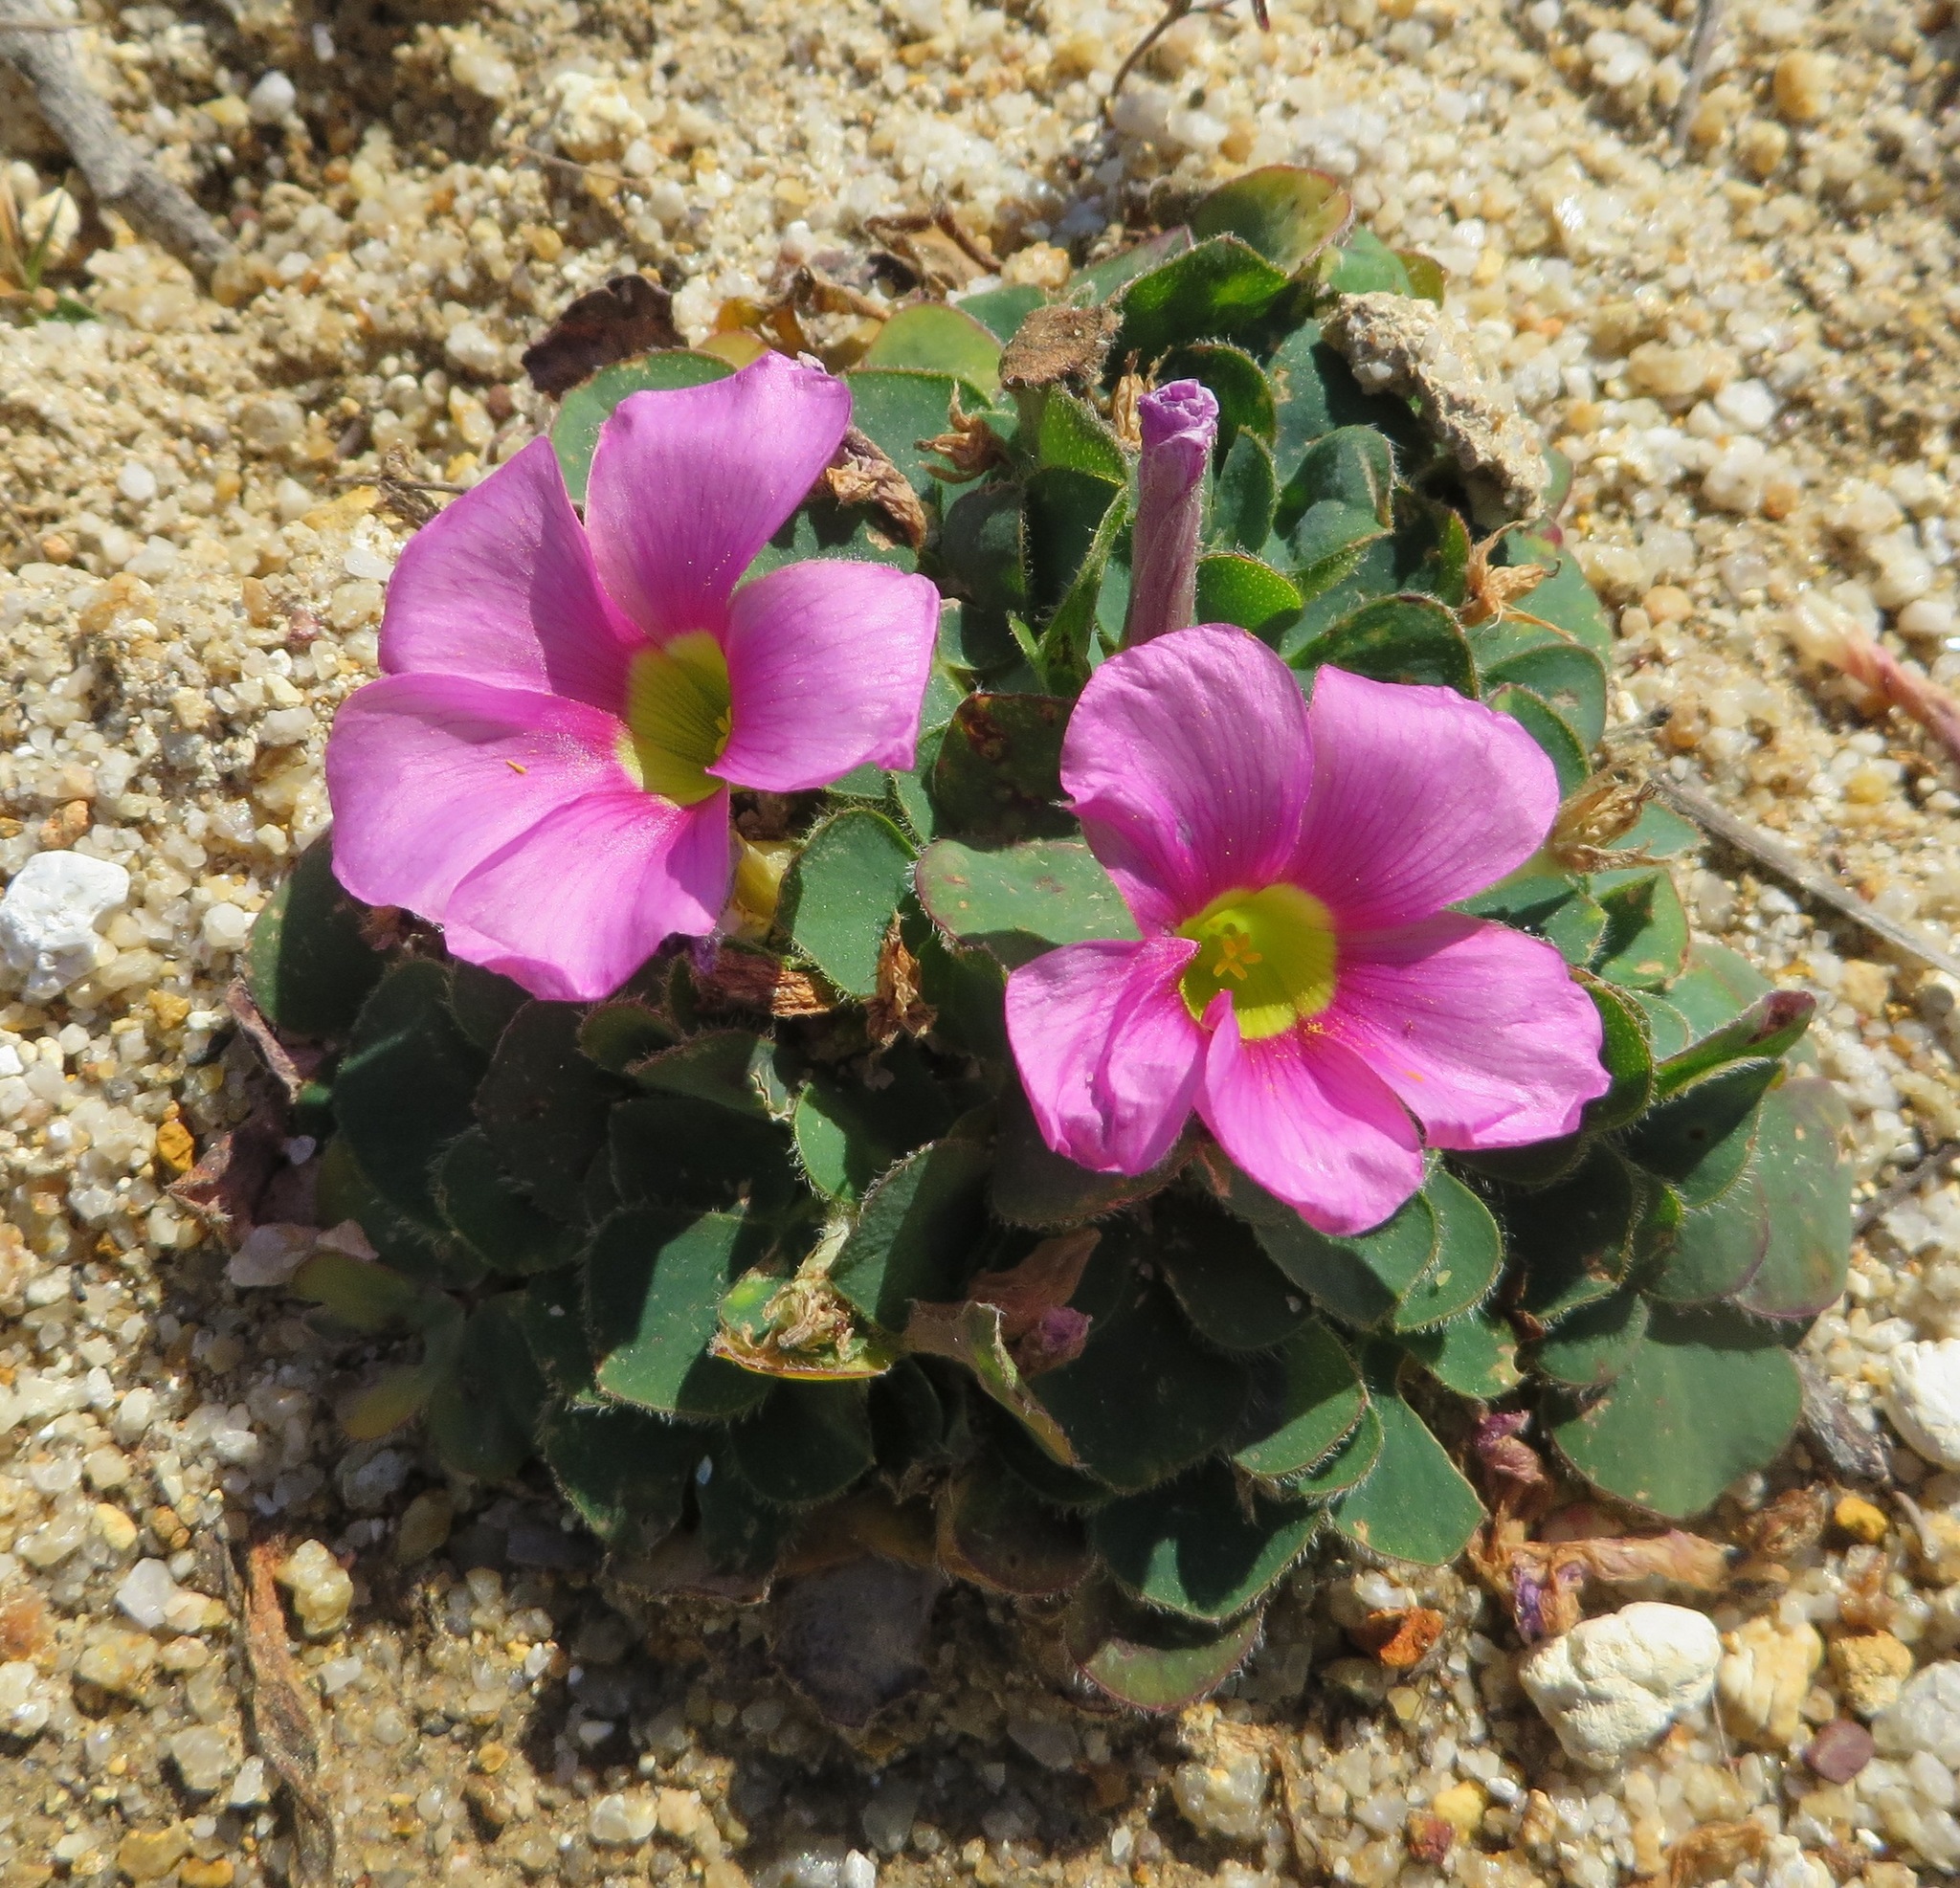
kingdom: Plantae
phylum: Tracheophyta
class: Magnoliopsida
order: Oxalidales
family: Oxalidaceae
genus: Oxalis
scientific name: Oxalis purpurea
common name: Purple woodsorrel
